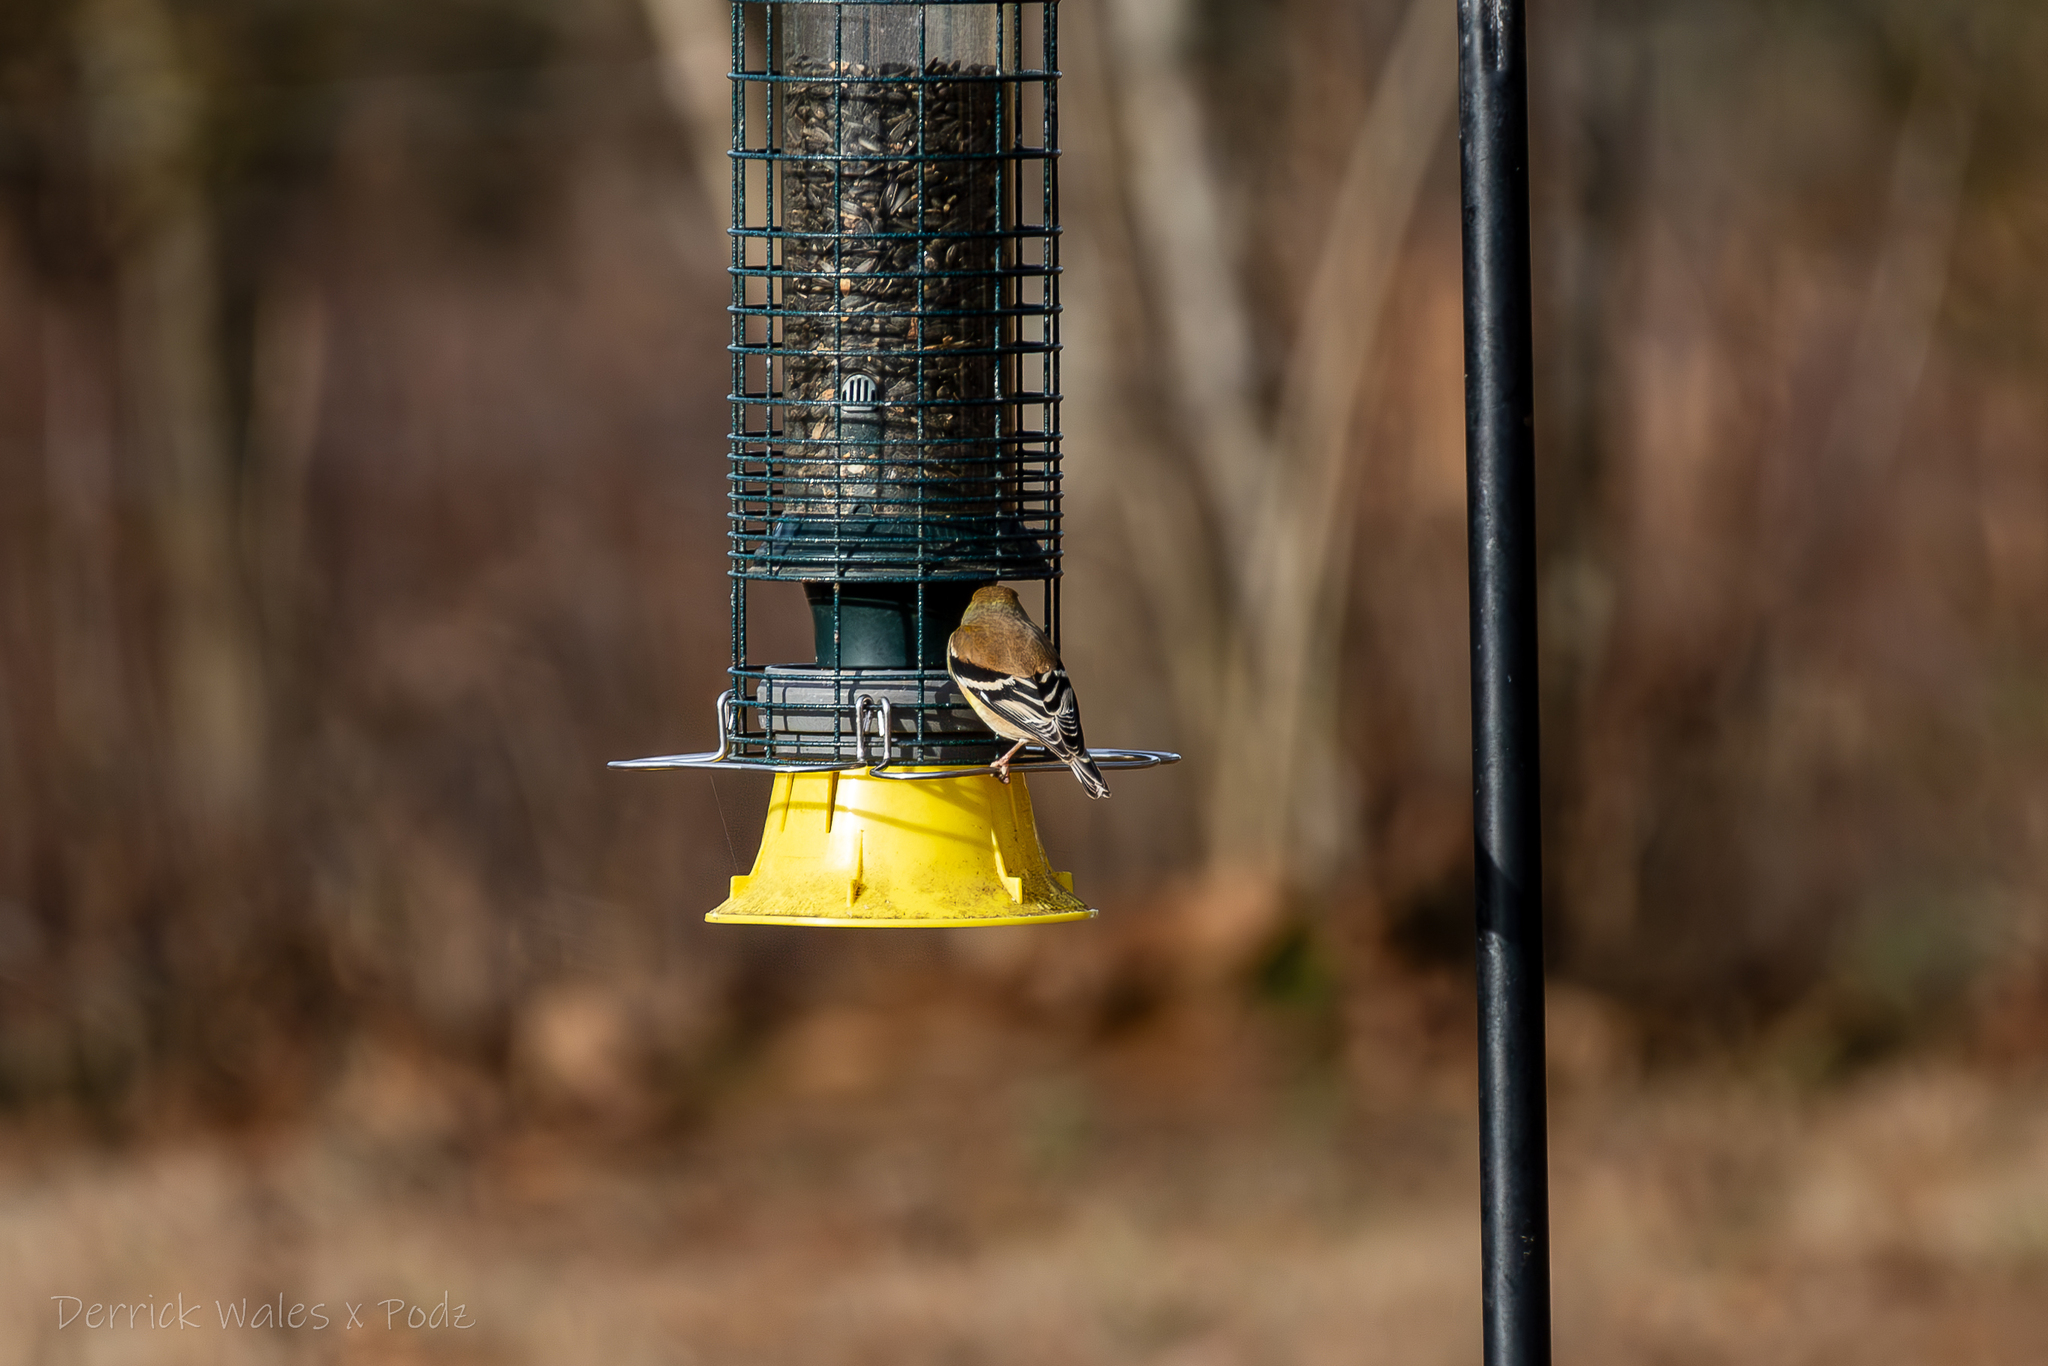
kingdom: Animalia
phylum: Chordata
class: Aves
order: Passeriformes
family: Fringillidae
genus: Spinus
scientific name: Spinus tristis
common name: American goldfinch
